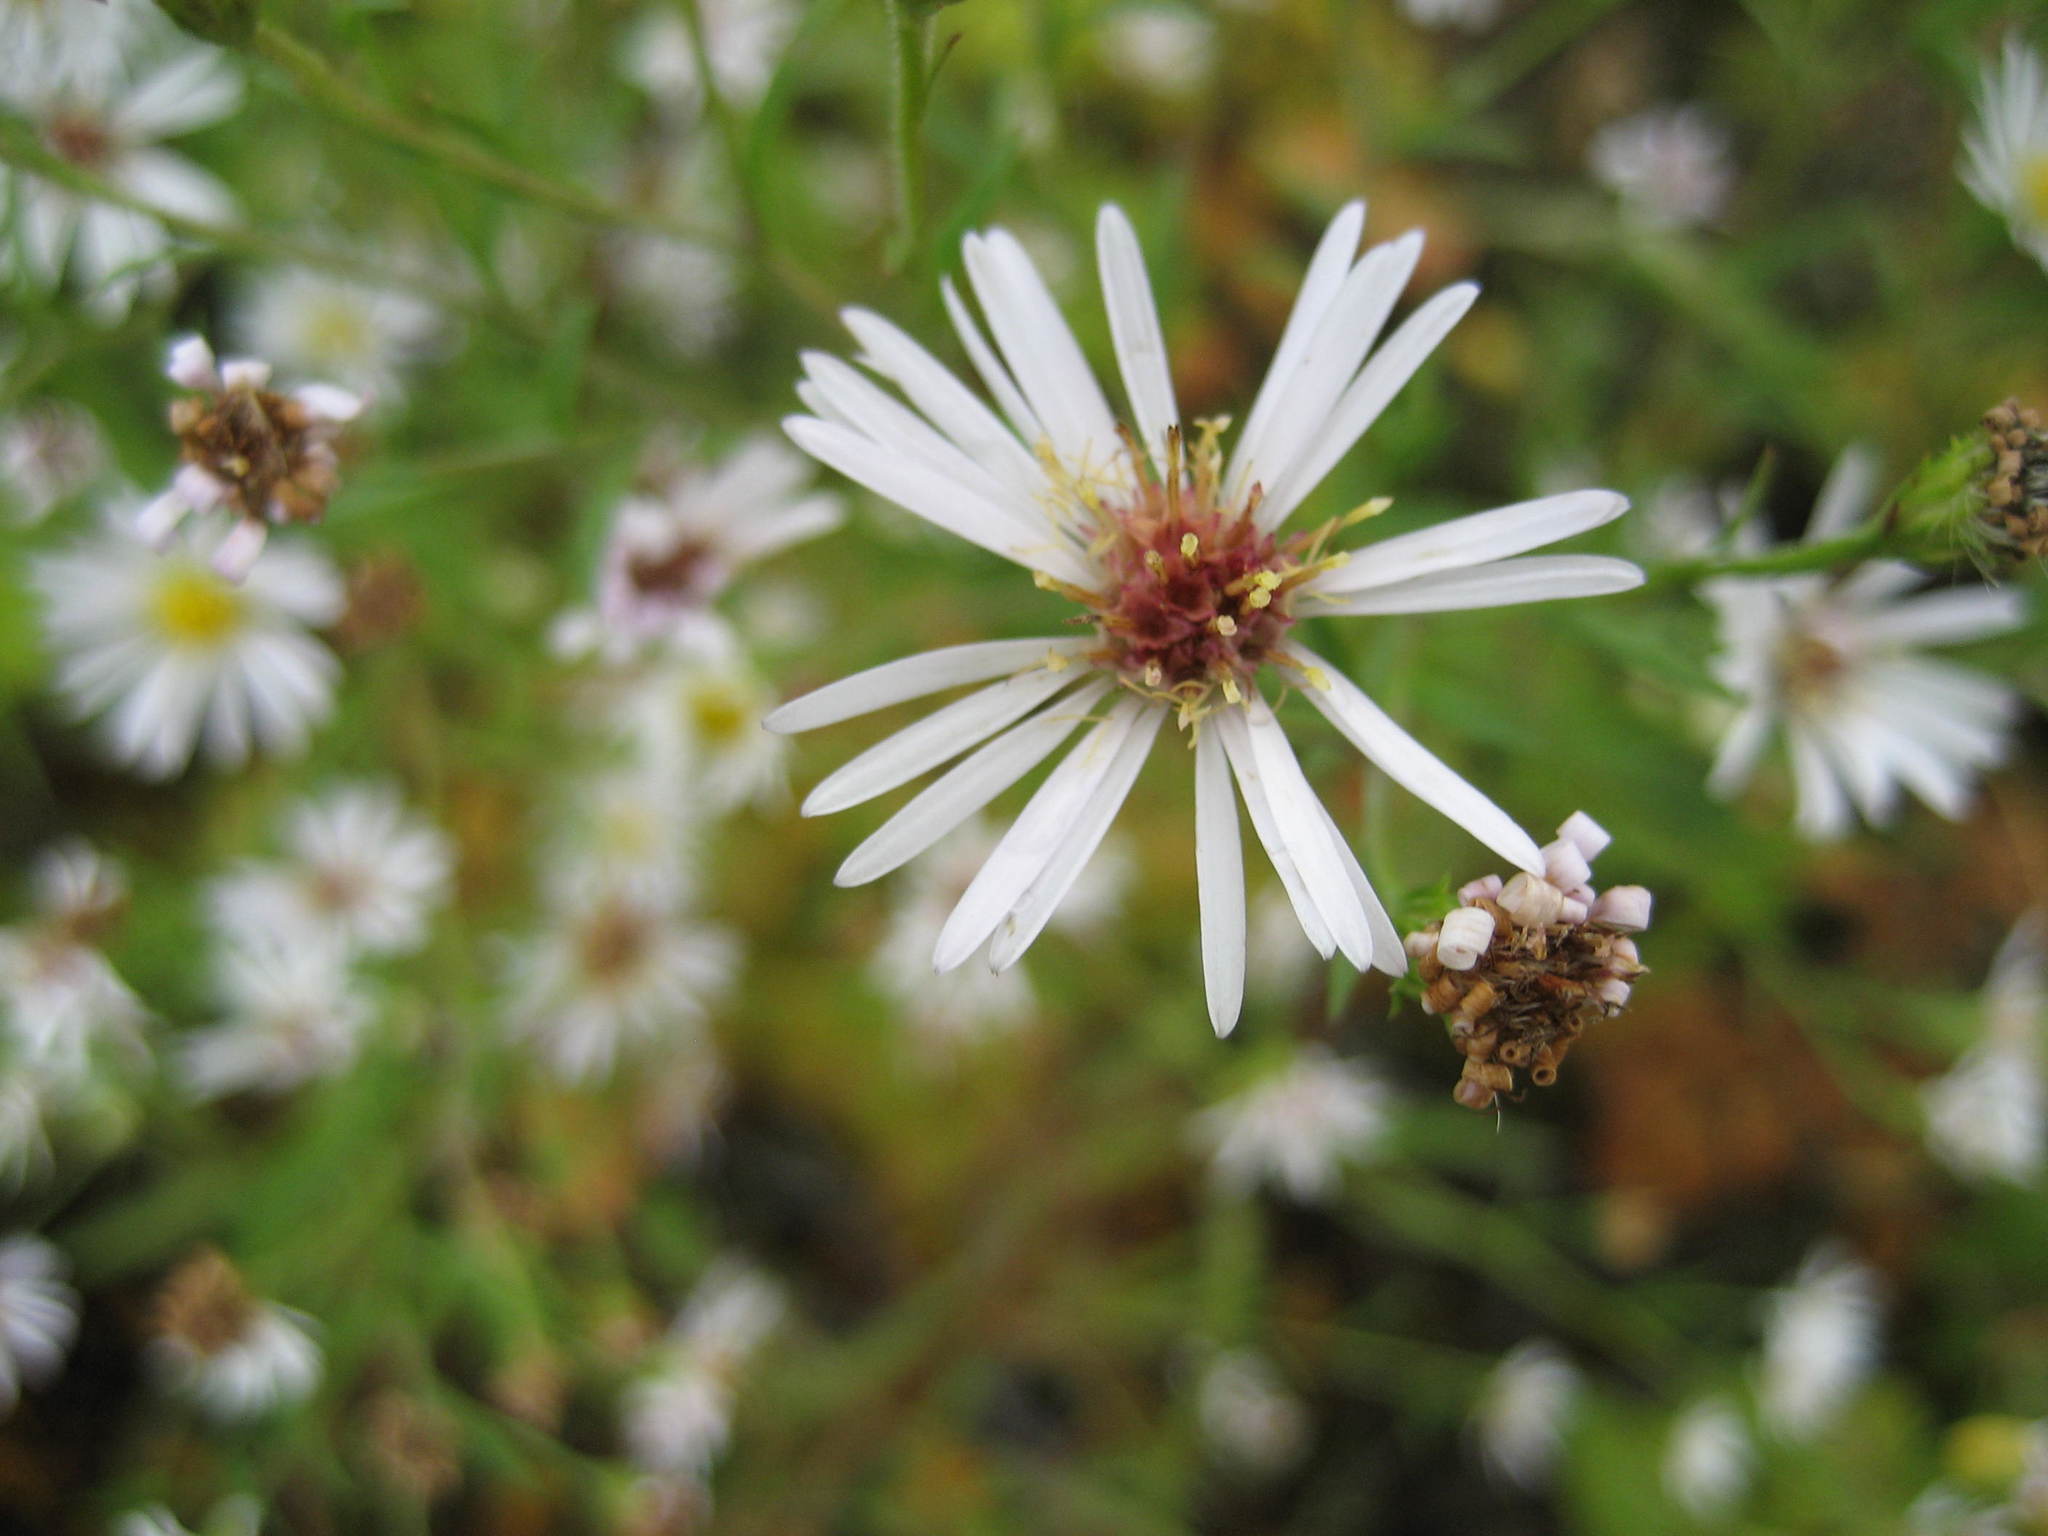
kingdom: Plantae
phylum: Tracheophyta
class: Magnoliopsida
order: Asterales
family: Asteraceae
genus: Symphyotrichum
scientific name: Symphyotrichum lanceolatum
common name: Panicled aster
